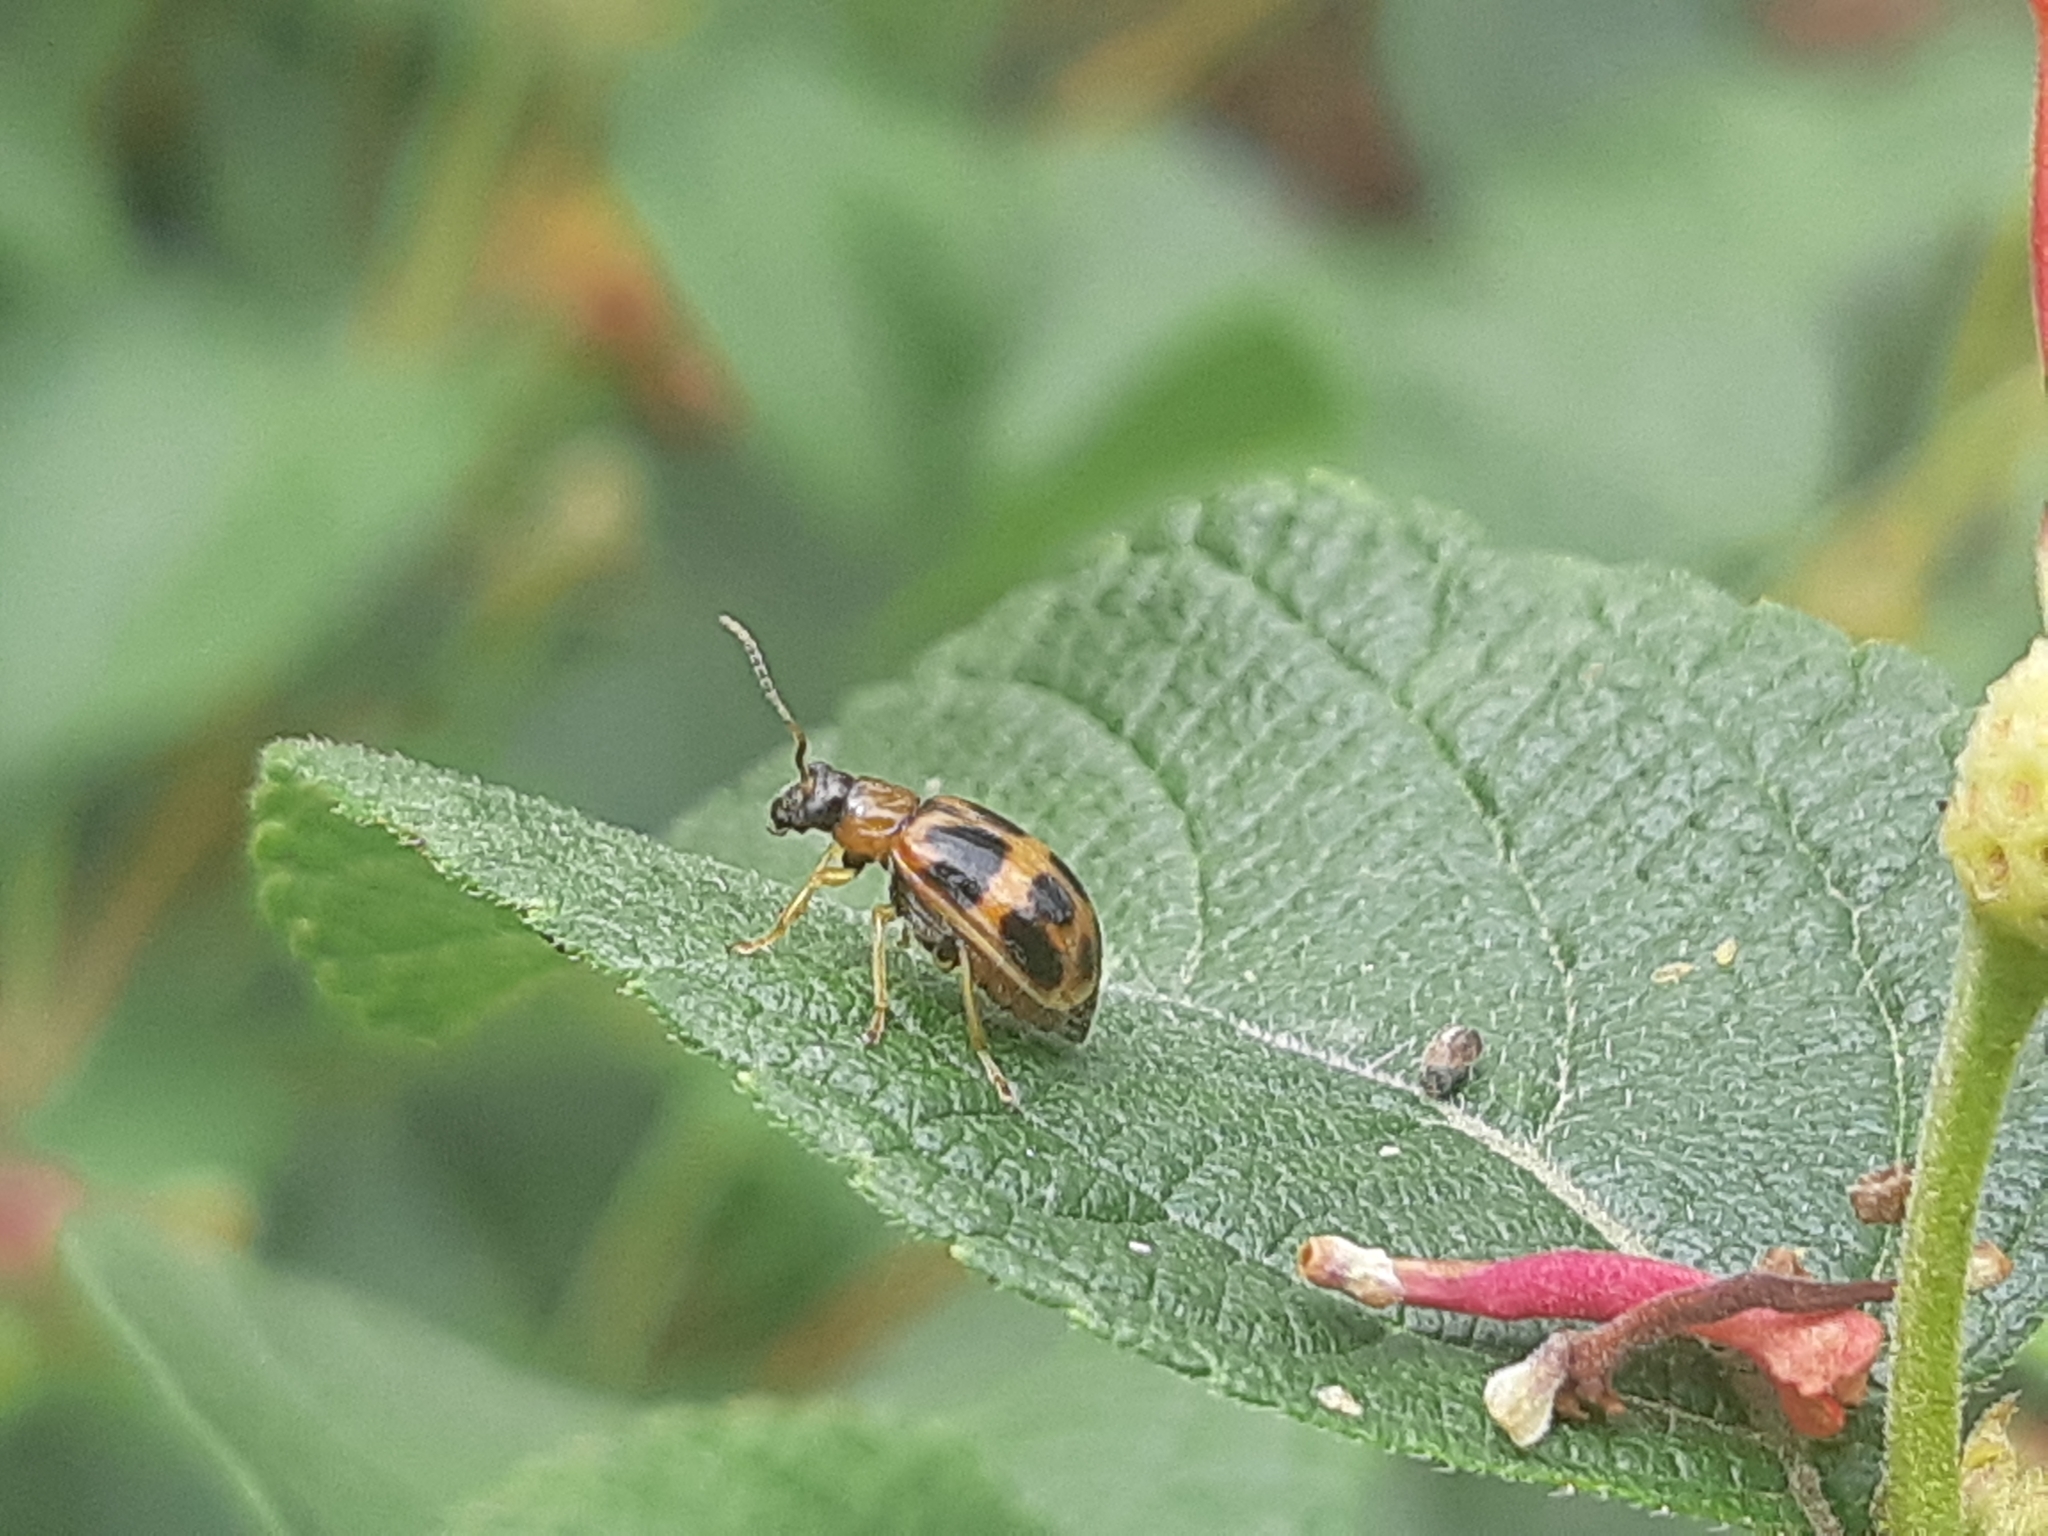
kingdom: Animalia
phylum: Arthropoda
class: Insecta
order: Coleoptera
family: Chrysomelidae
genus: Cerotoma
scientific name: Cerotoma
